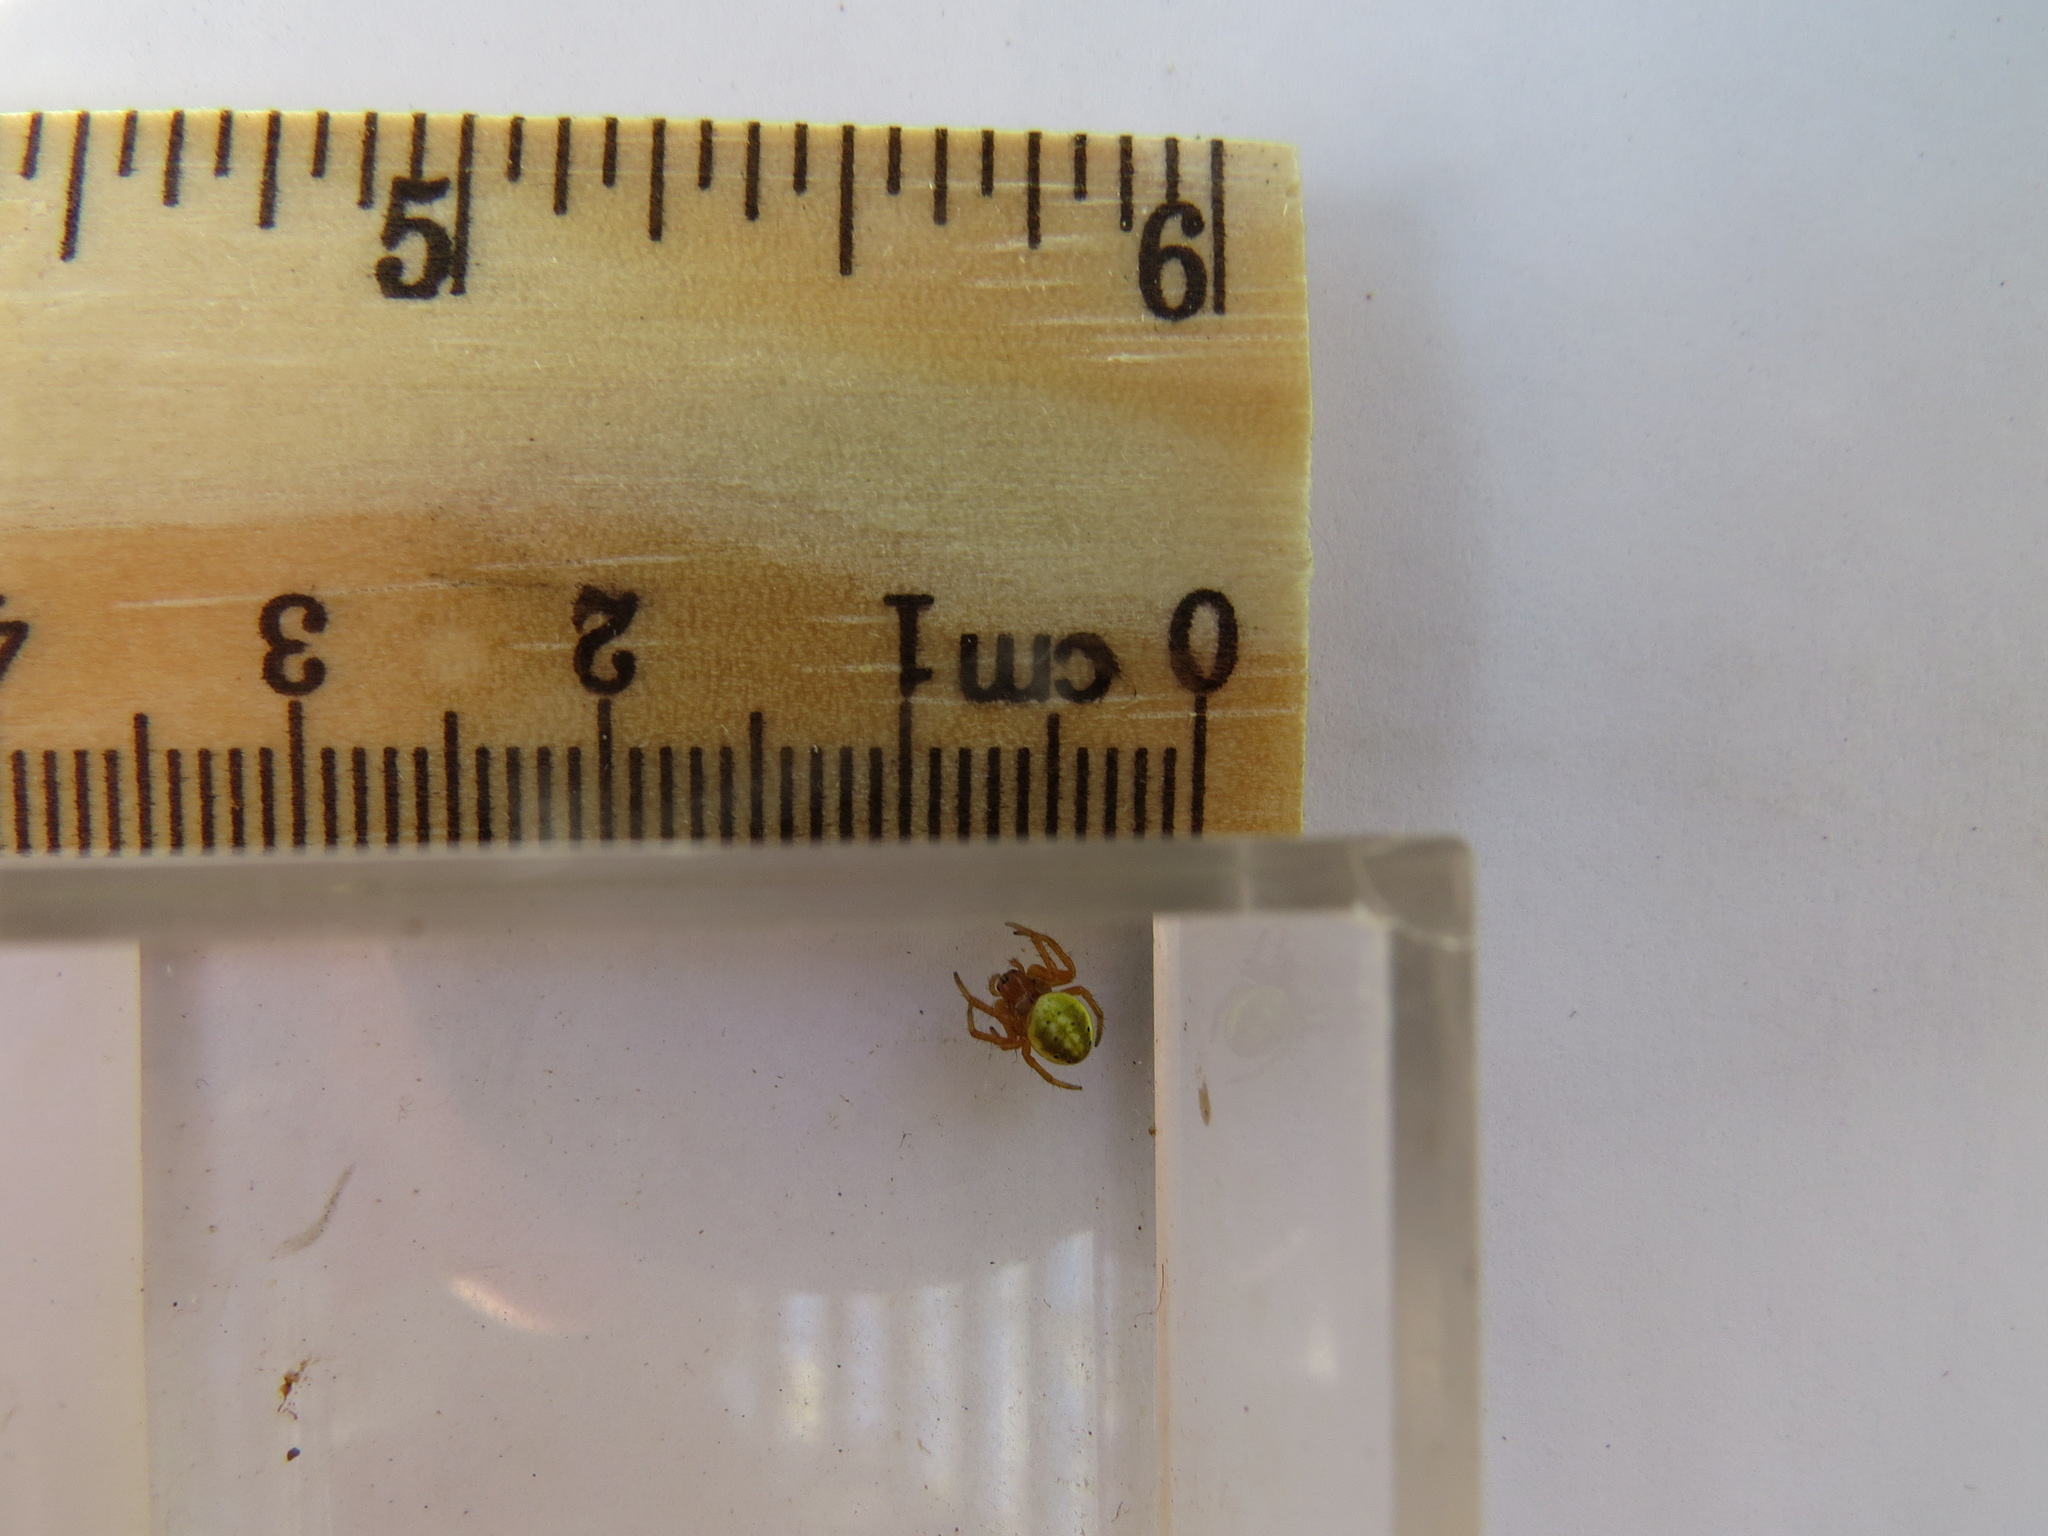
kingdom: Animalia
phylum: Arthropoda
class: Arachnida
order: Araneae
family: Araneidae
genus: Araniella
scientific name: Araniella displicata
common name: Sixspotted orb weaver
